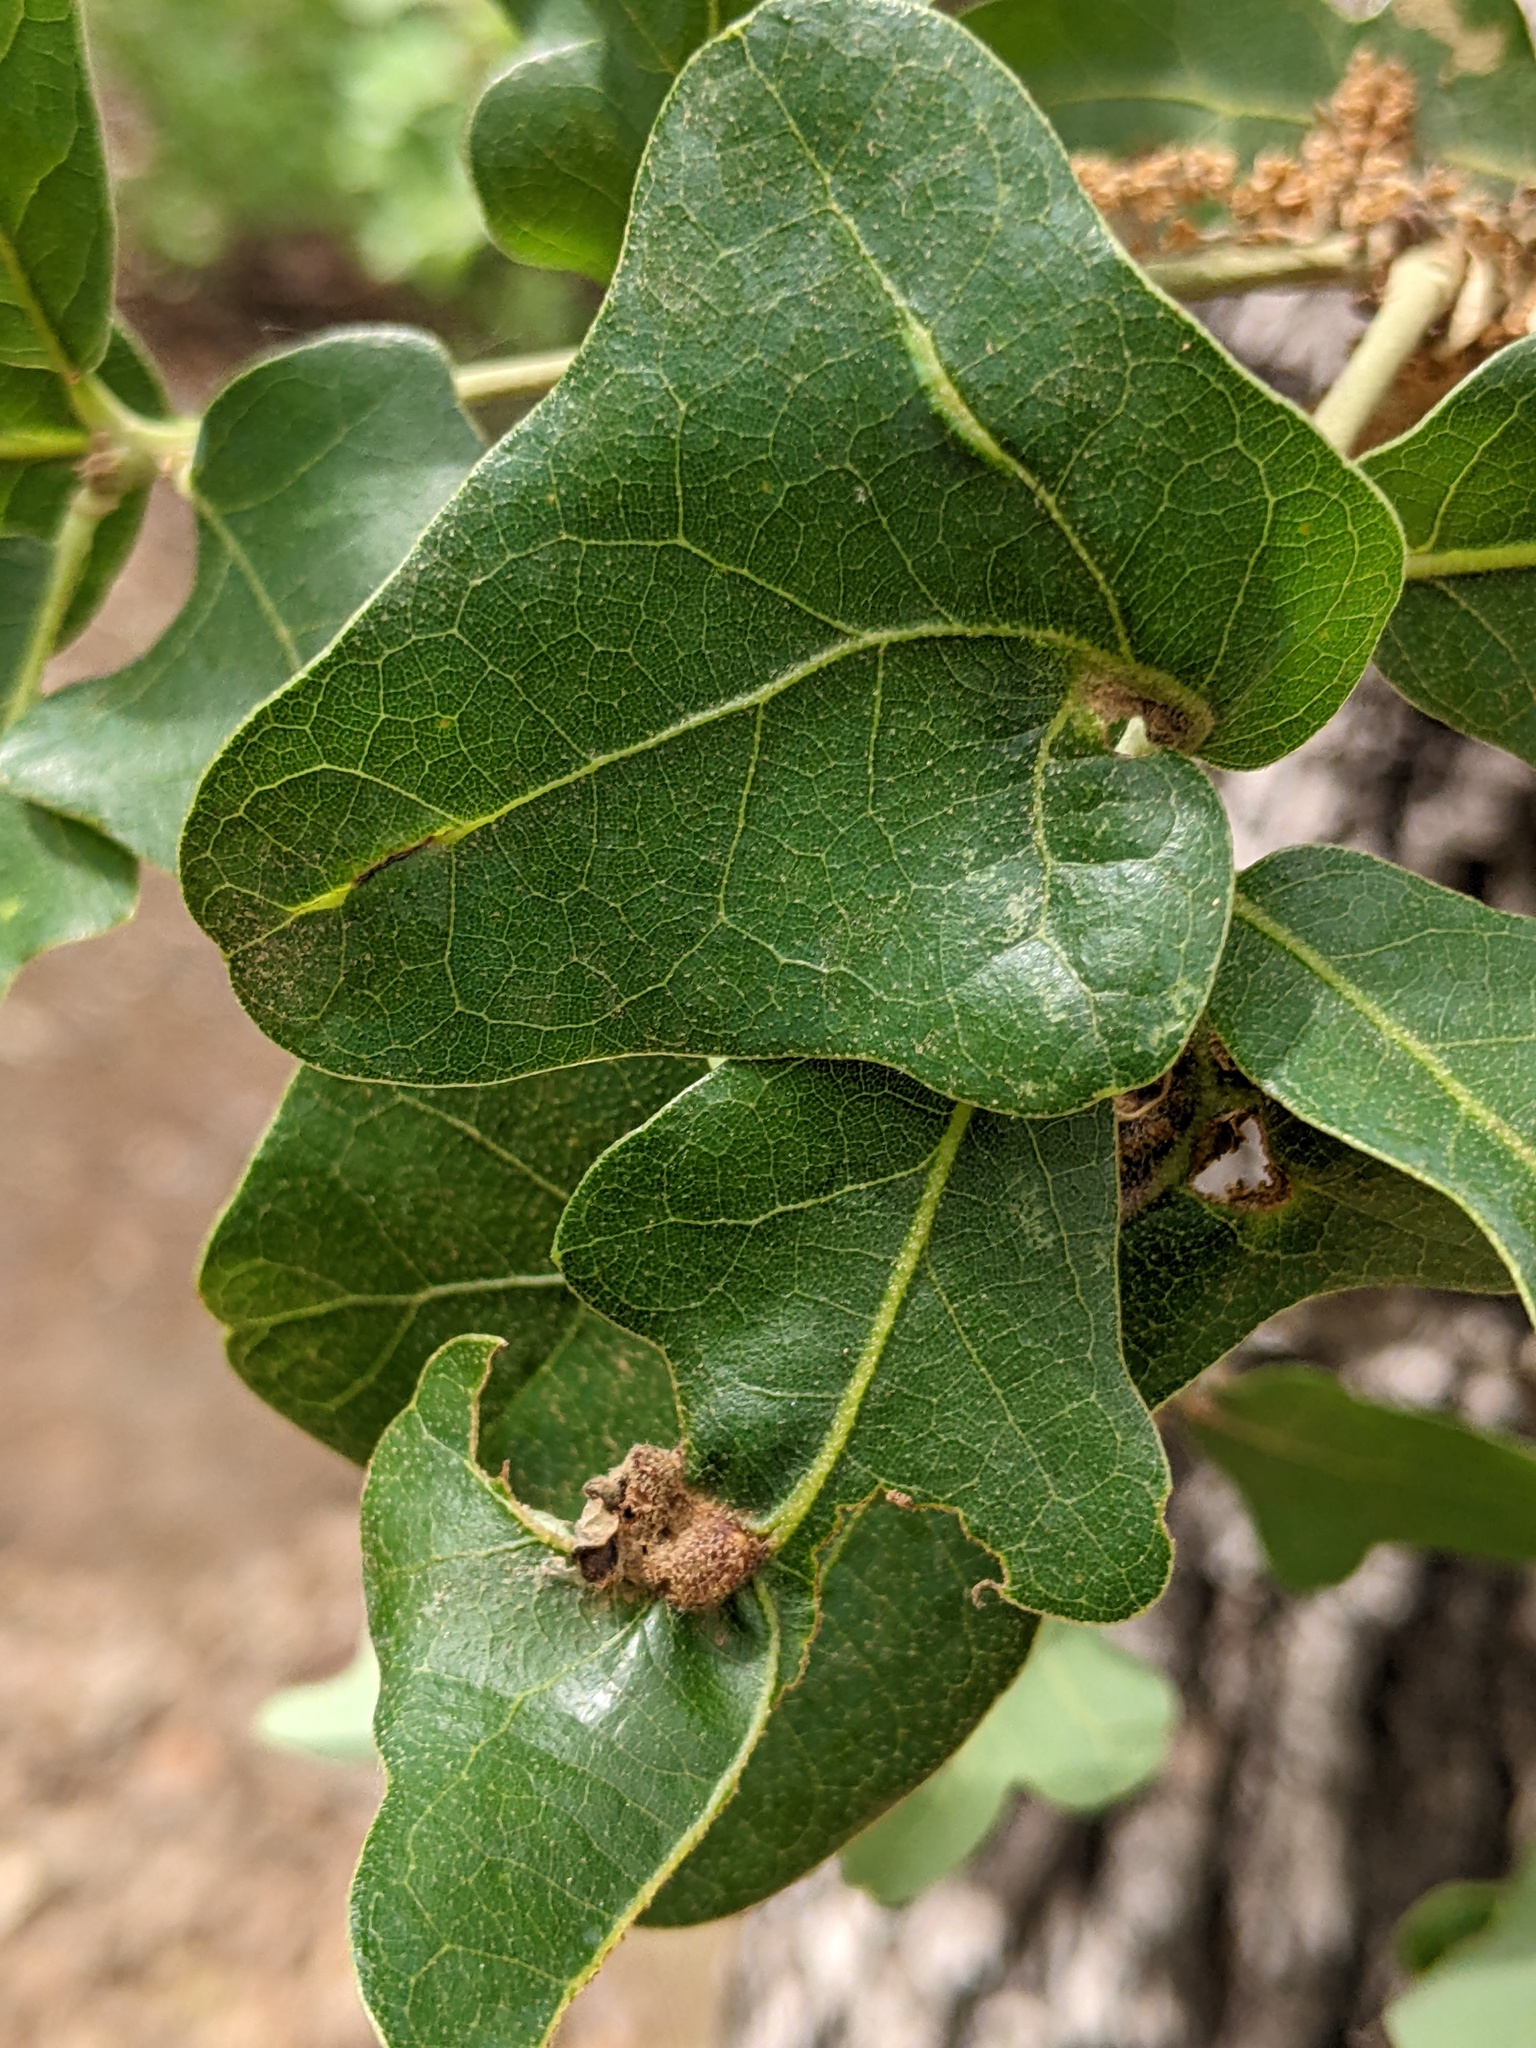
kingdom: Animalia
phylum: Arthropoda
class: Insecta
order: Hymenoptera
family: Cynipidae
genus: Neuroterus
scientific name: Neuroterus quercusirregularis
